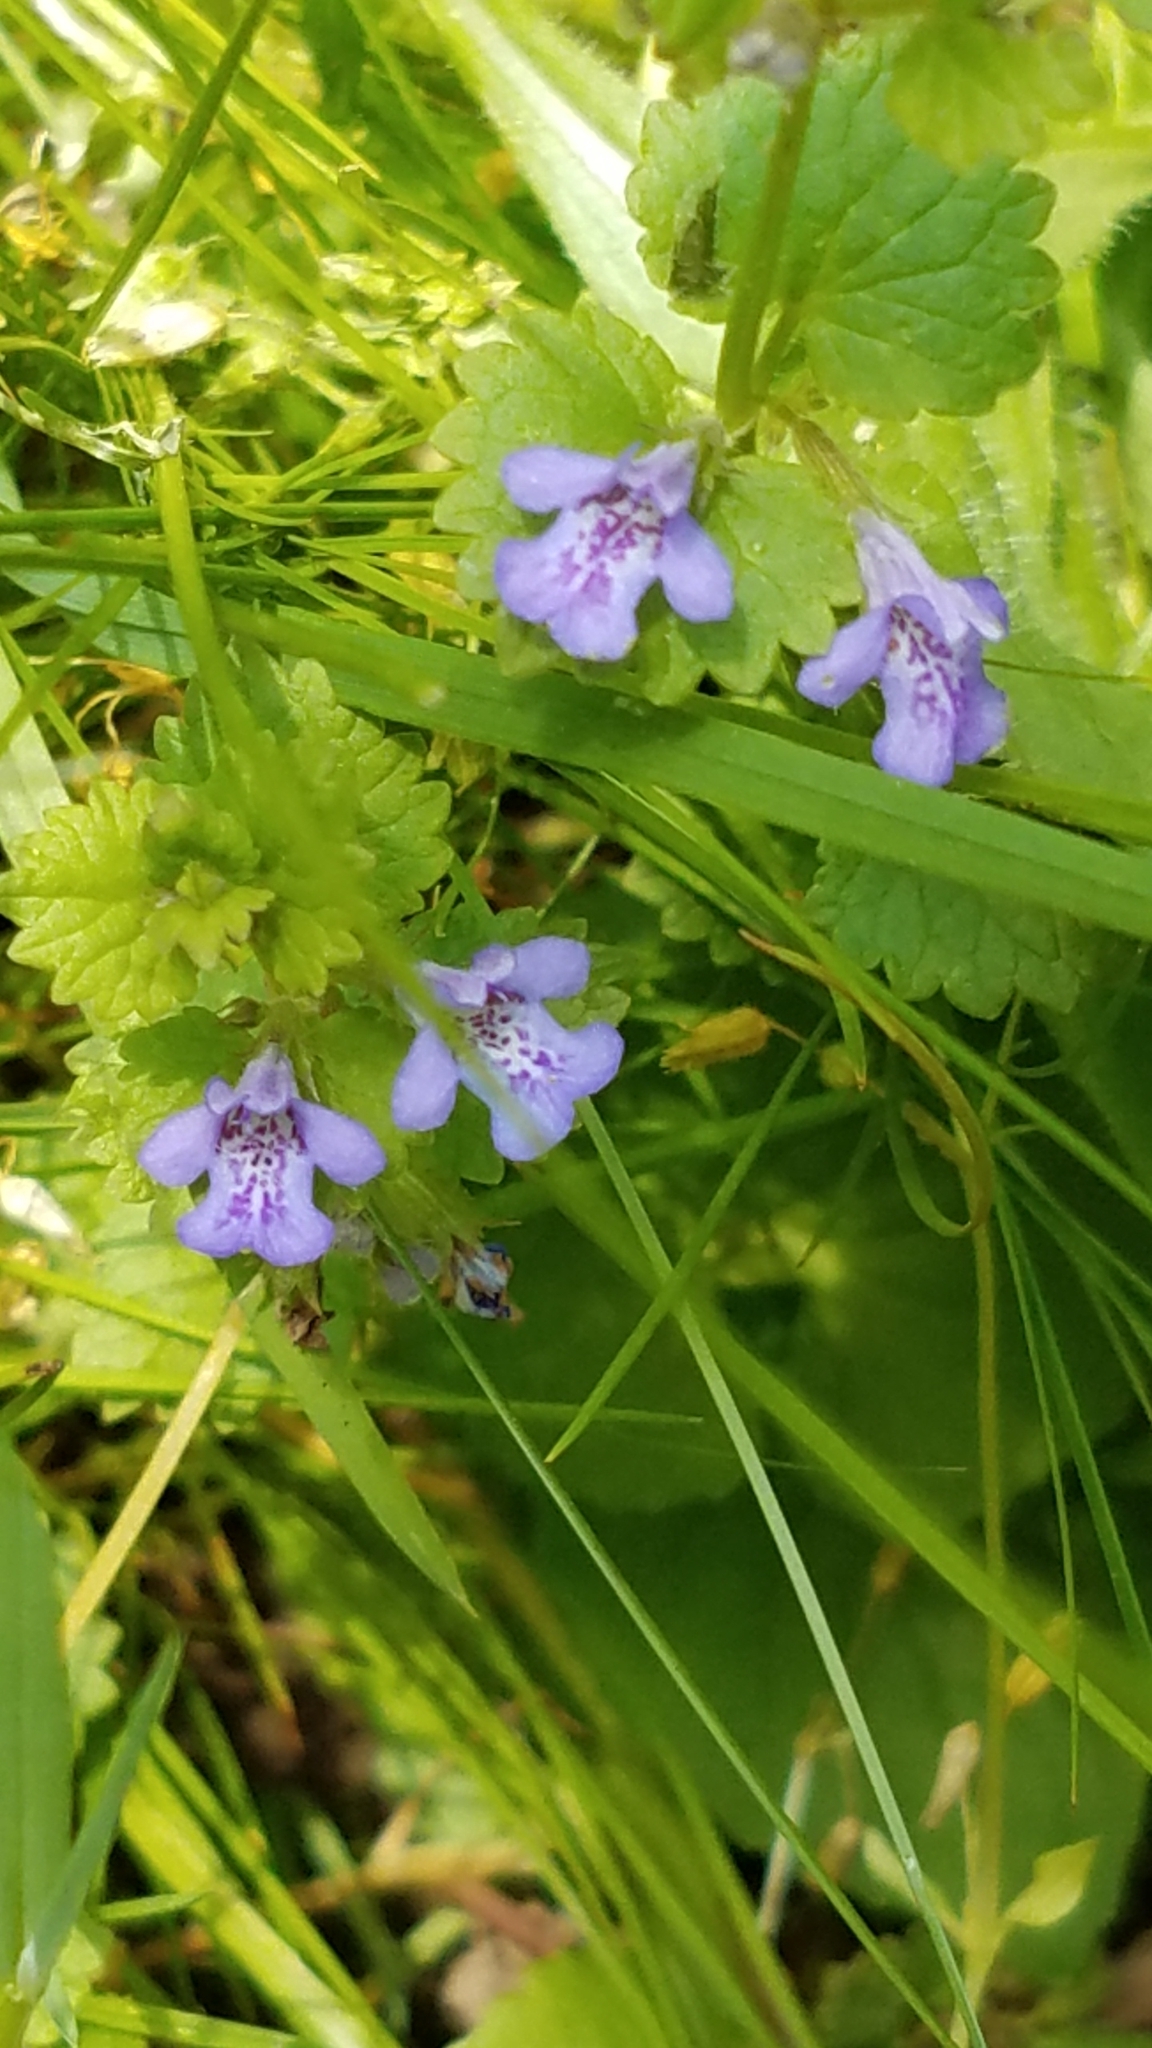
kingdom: Plantae
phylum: Tracheophyta
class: Magnoliopsida
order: Lamiales
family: Lamiaceae
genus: Glechoma
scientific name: Glechoma hederacea
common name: Ground ivy
